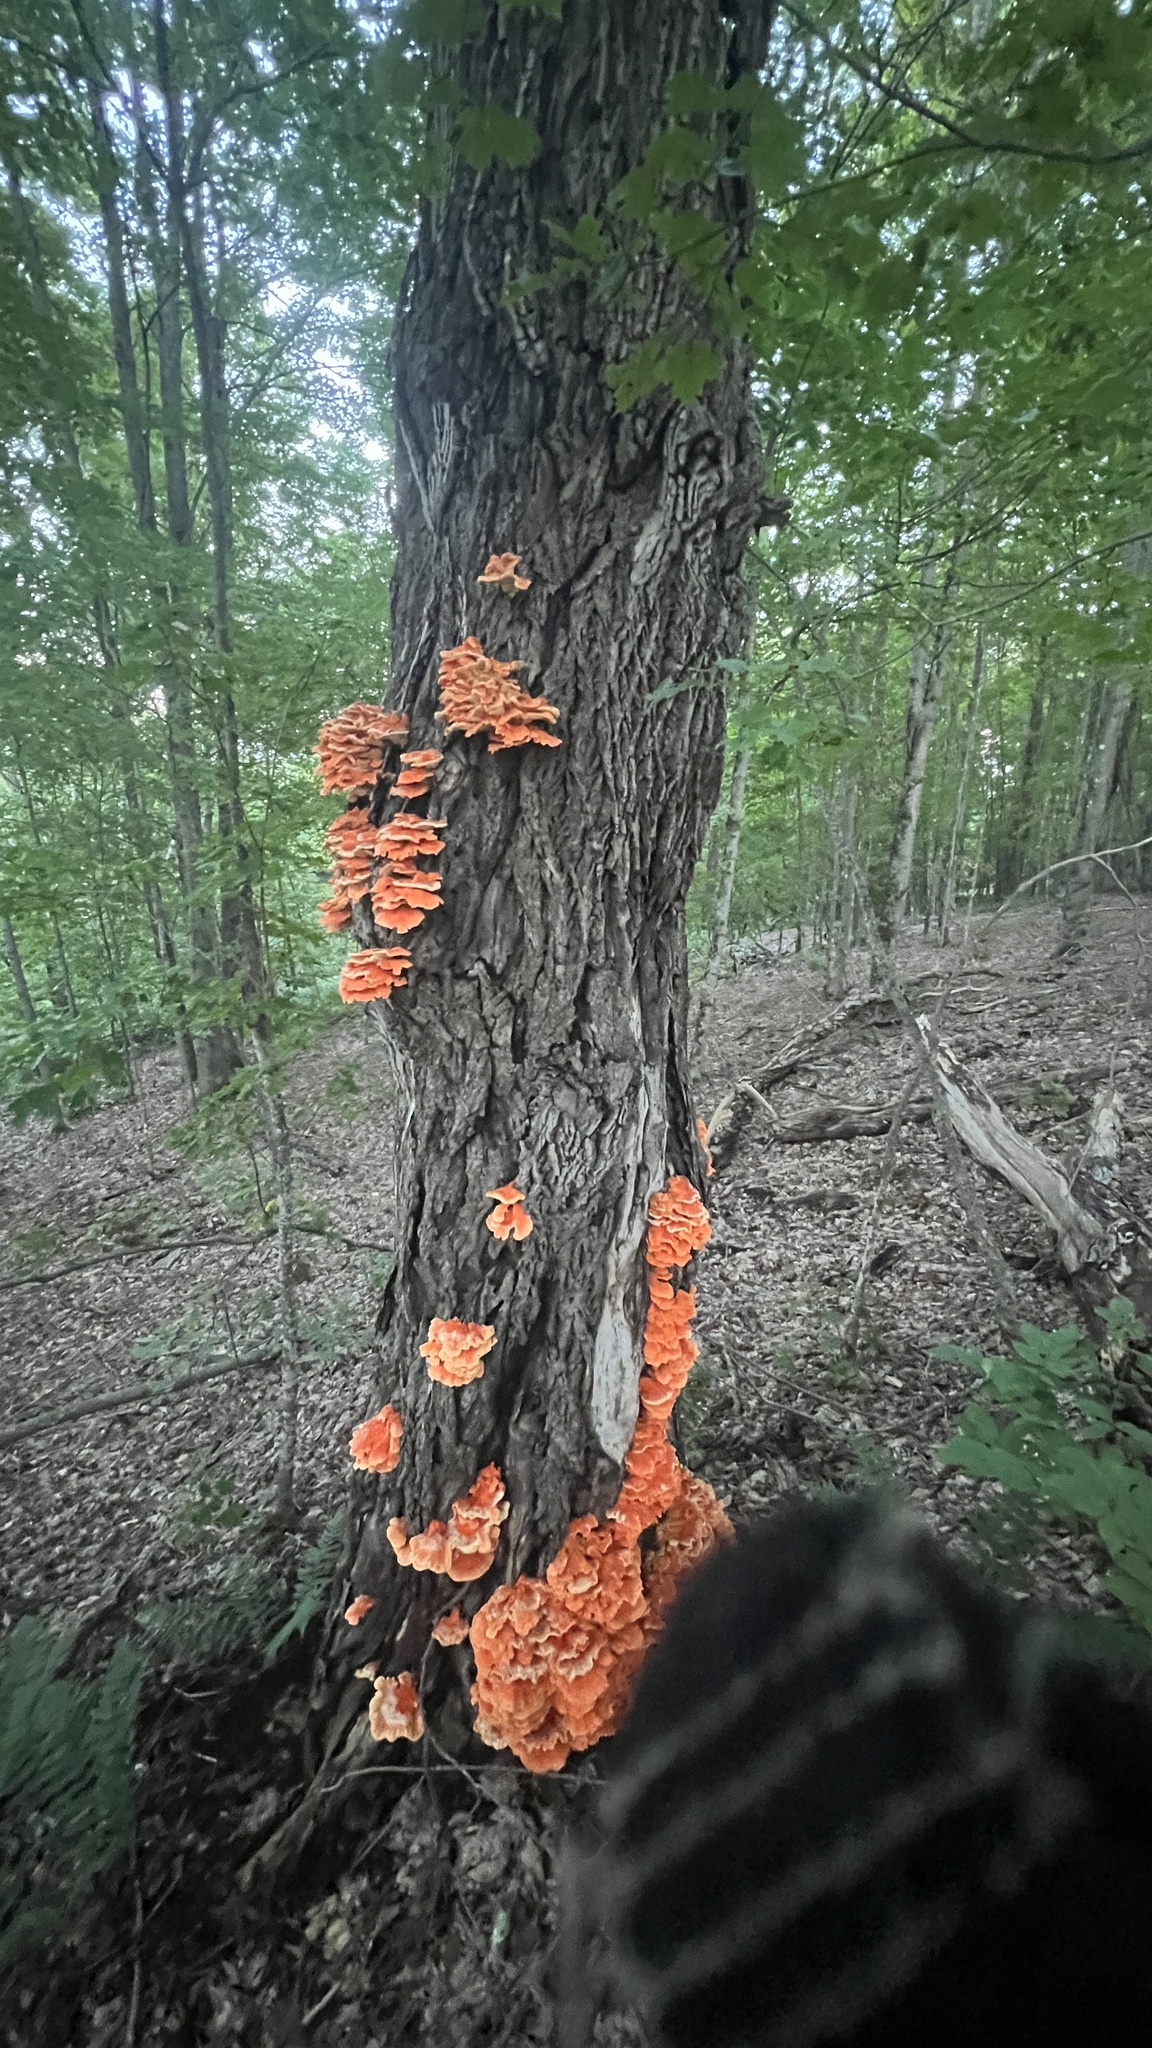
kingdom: Fungi
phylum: Basidiomycota
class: Agaricomycetes
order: Polyporales
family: Laetiporaceae
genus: Laetiporus
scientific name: Laetiporus sulphureus
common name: Chicken of the woods
